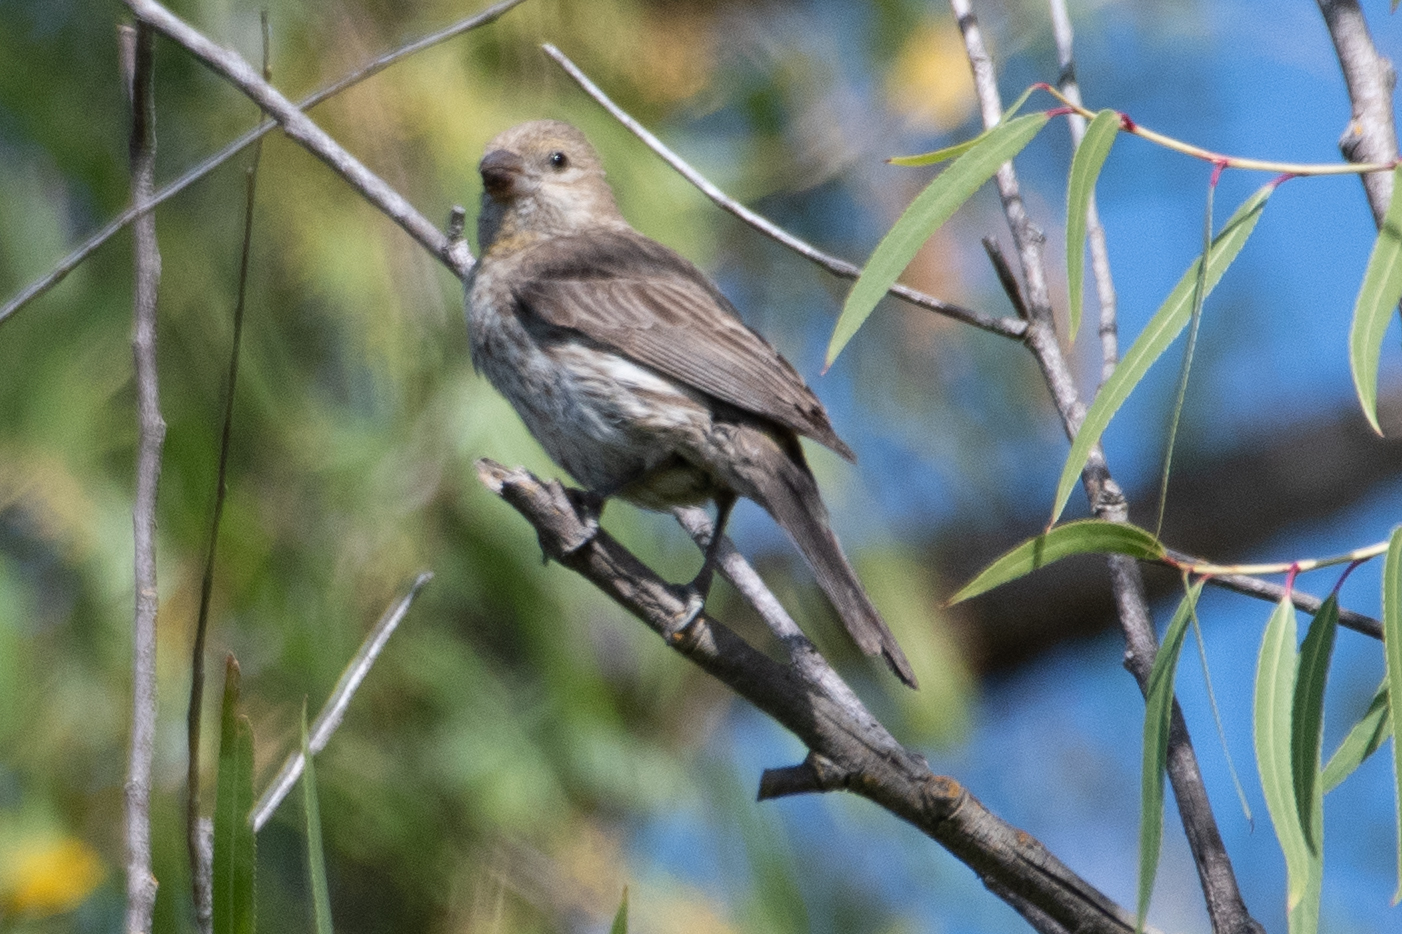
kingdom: Animalia
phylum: Chordata
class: Aves
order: Passeriformes
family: Fringillidae
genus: Haemorhous
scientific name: Haemorhous mexicanus
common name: House finch
